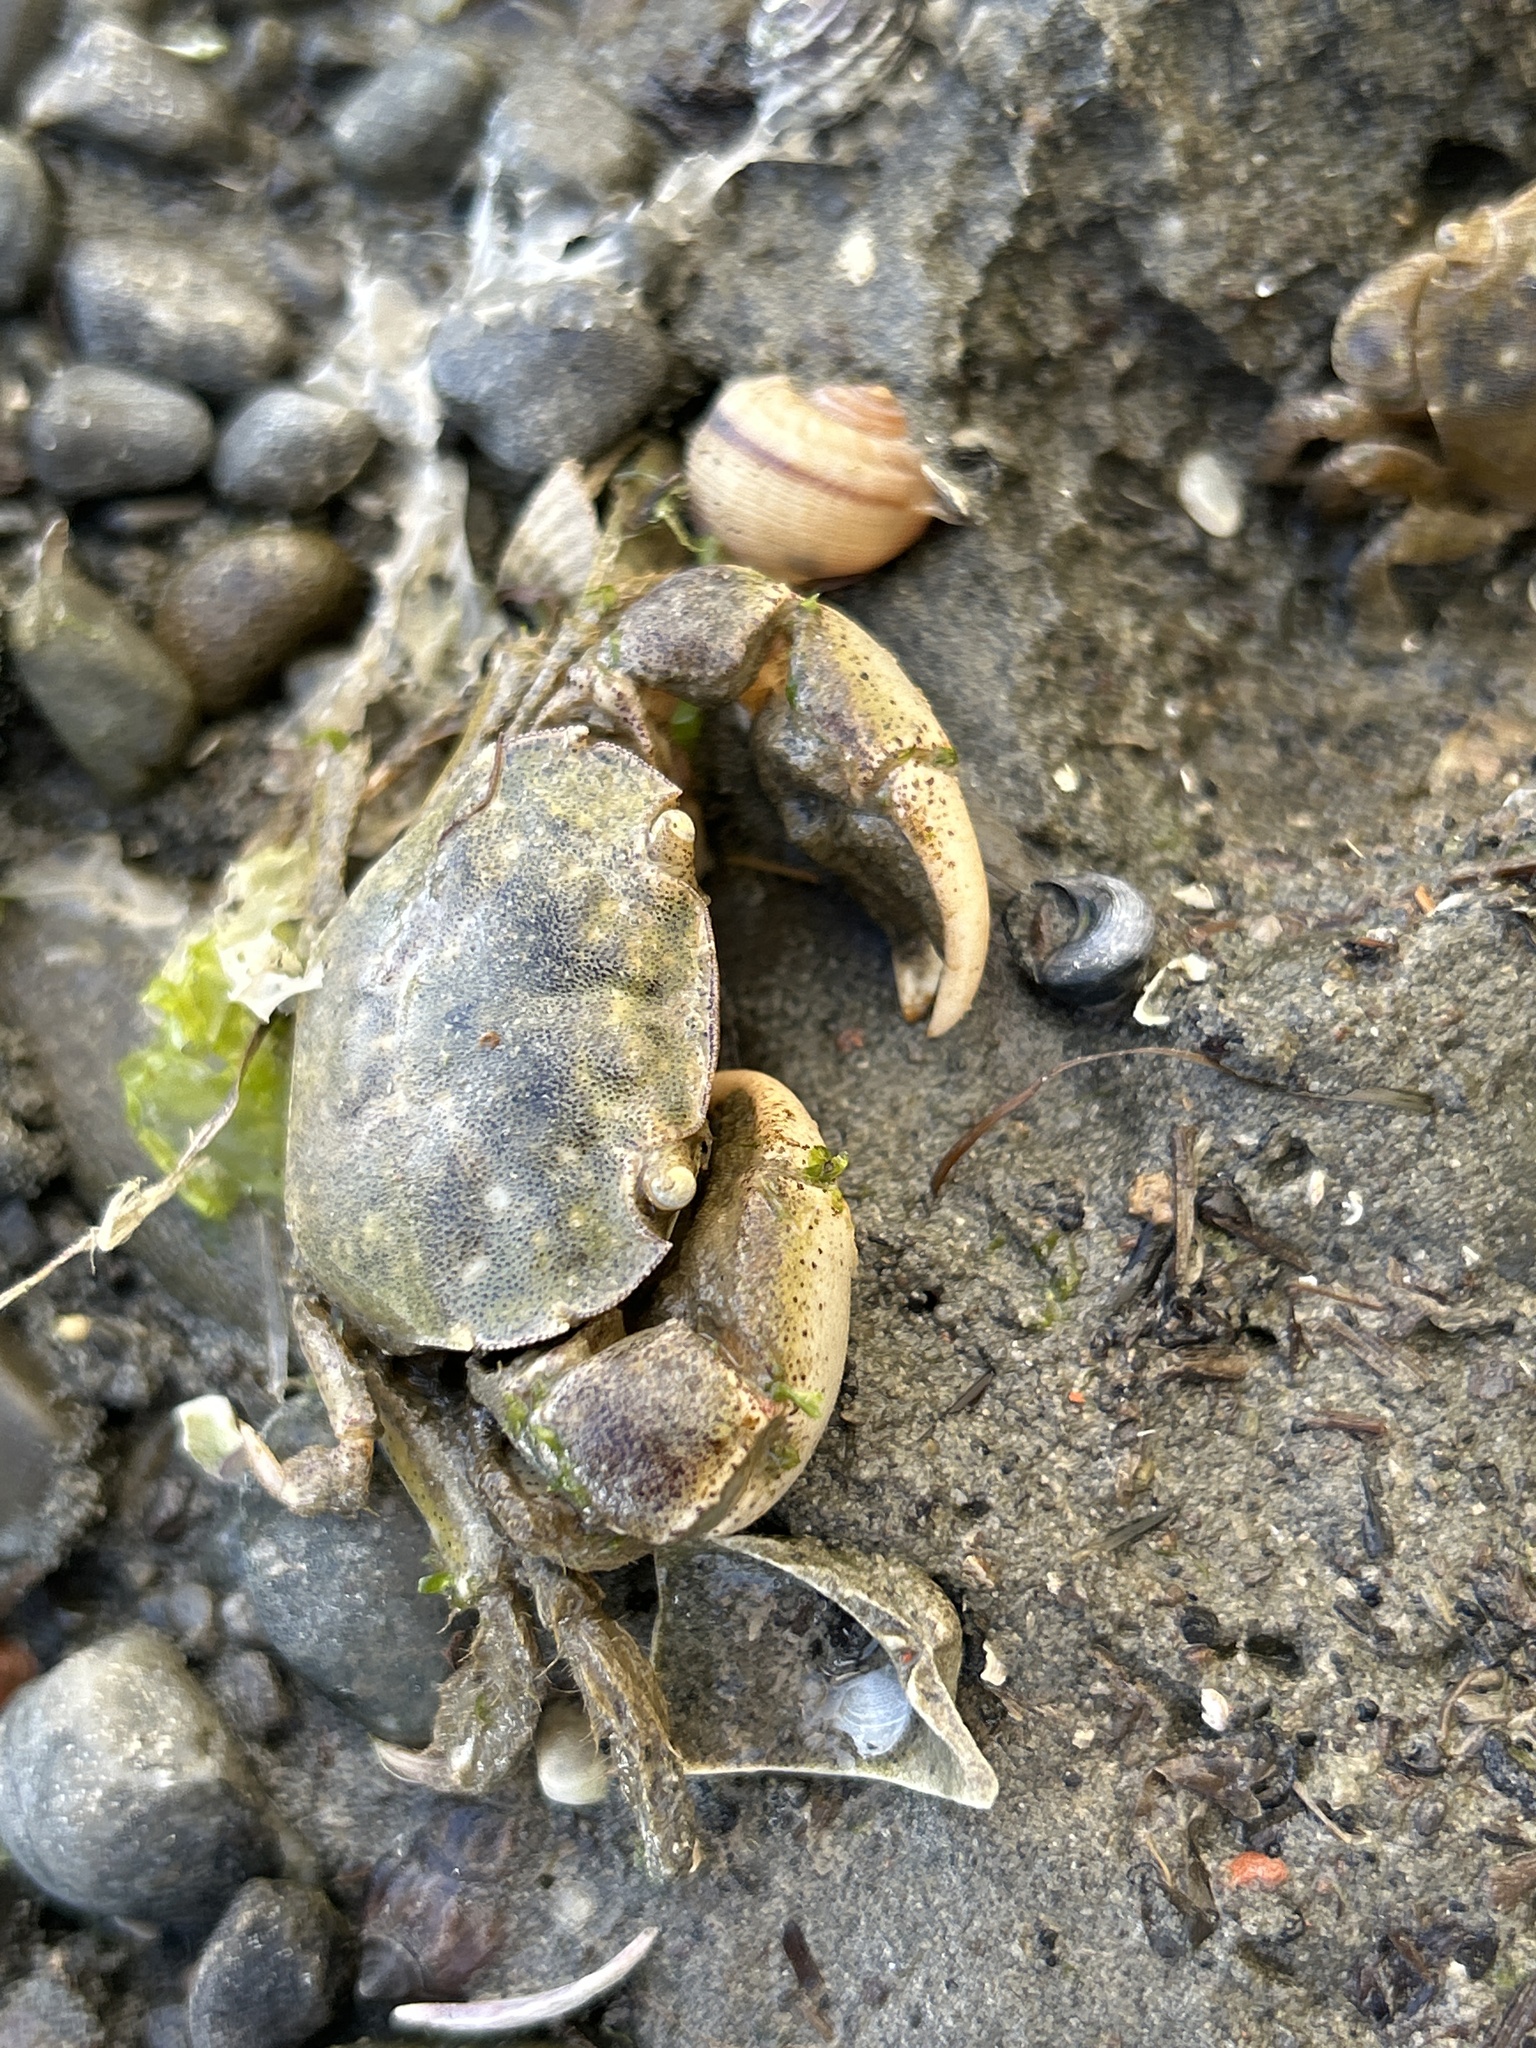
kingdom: Animalia
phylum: Arthropoda
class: Malacostraca
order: Decapoda
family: Varunidae
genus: Hemigrapsus
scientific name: Hemigrapsus crenulatus
